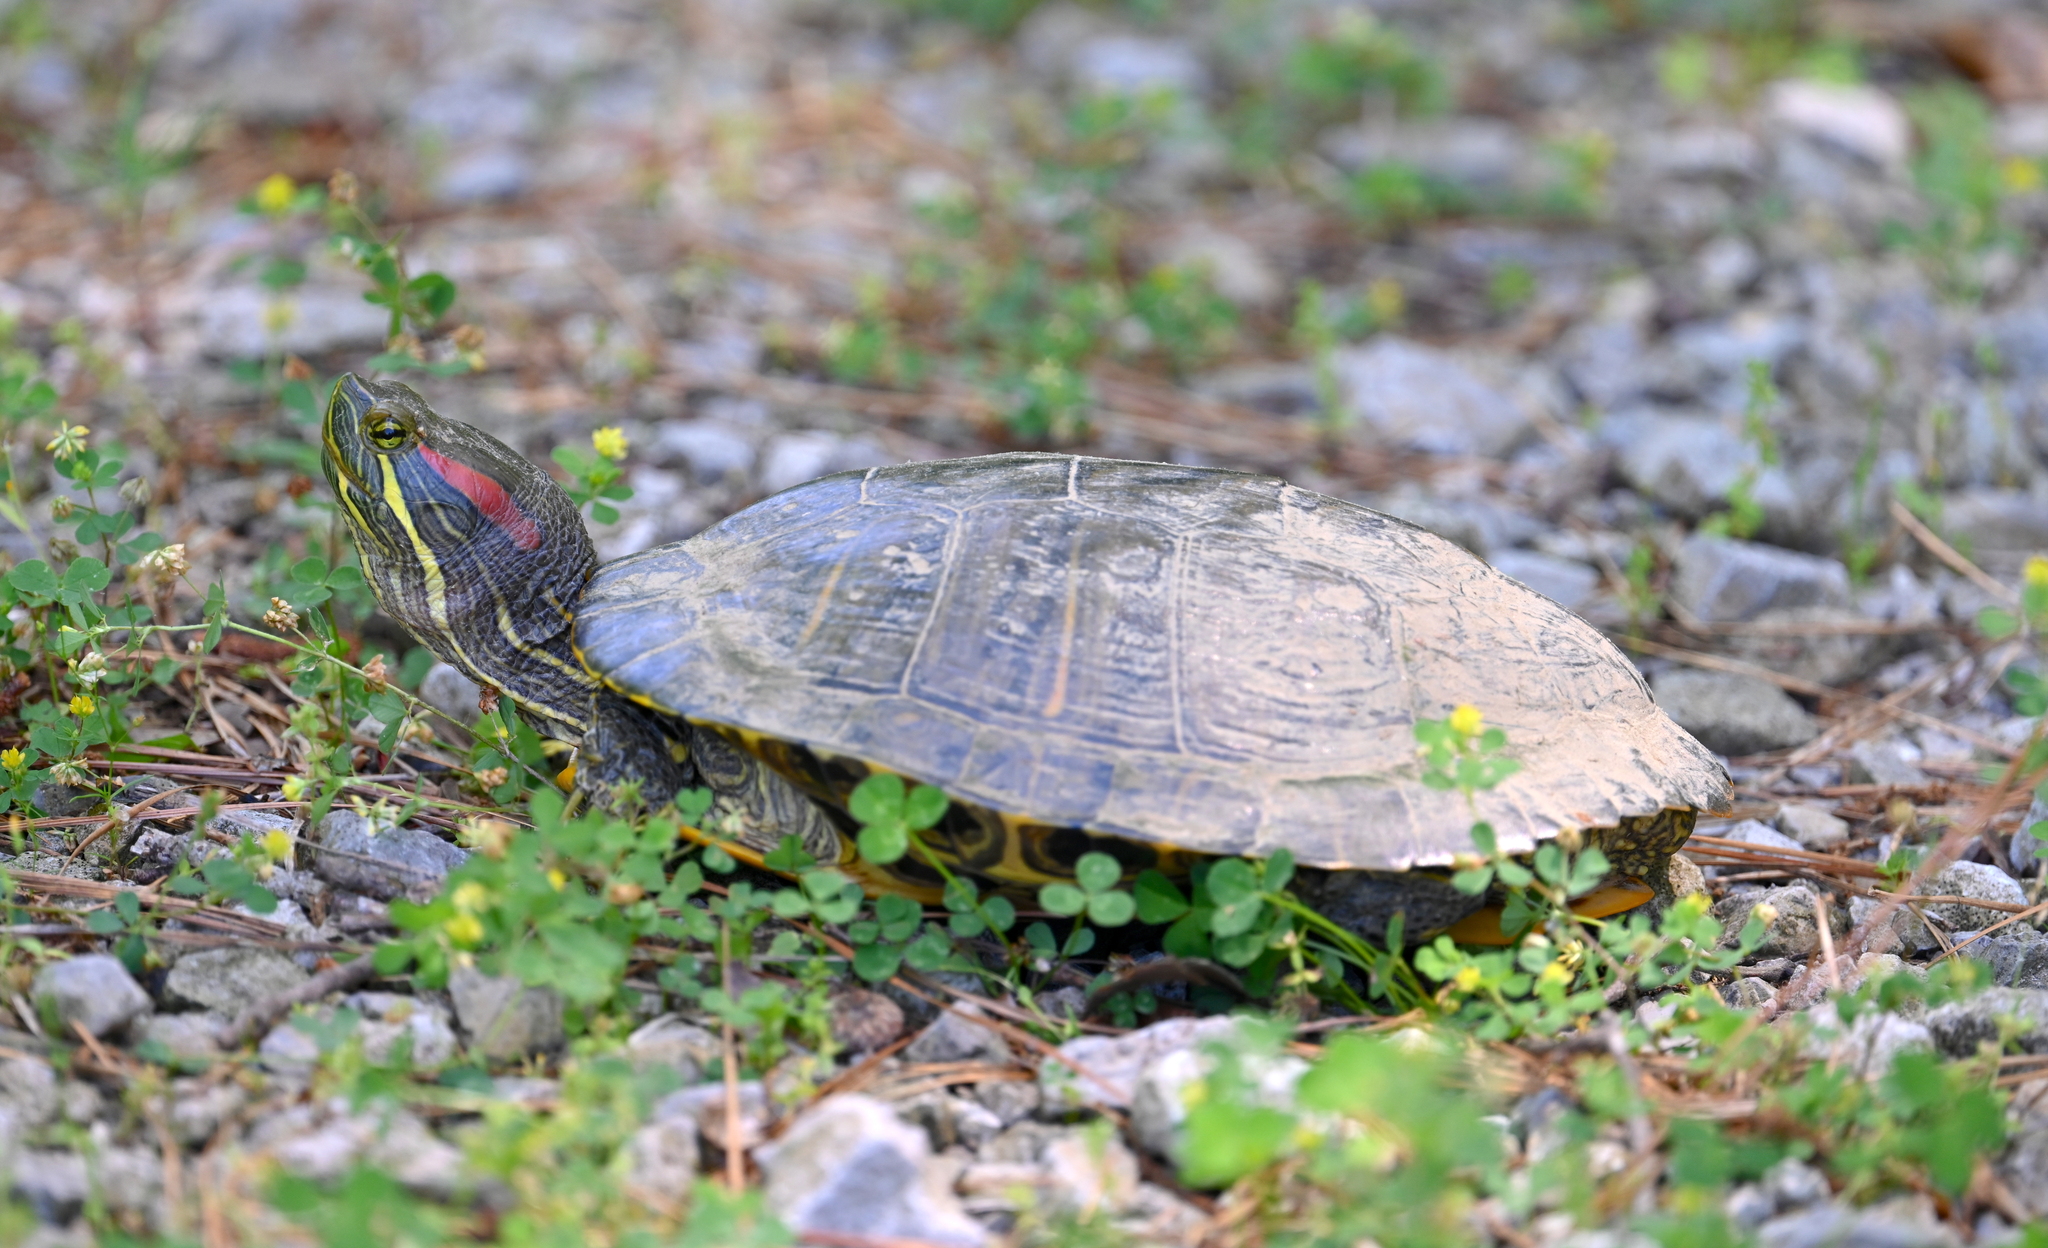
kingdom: Animalia
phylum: Chordata
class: Testudines
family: Emydidae
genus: Trachemys
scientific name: Trachemys scripta
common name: Slider
